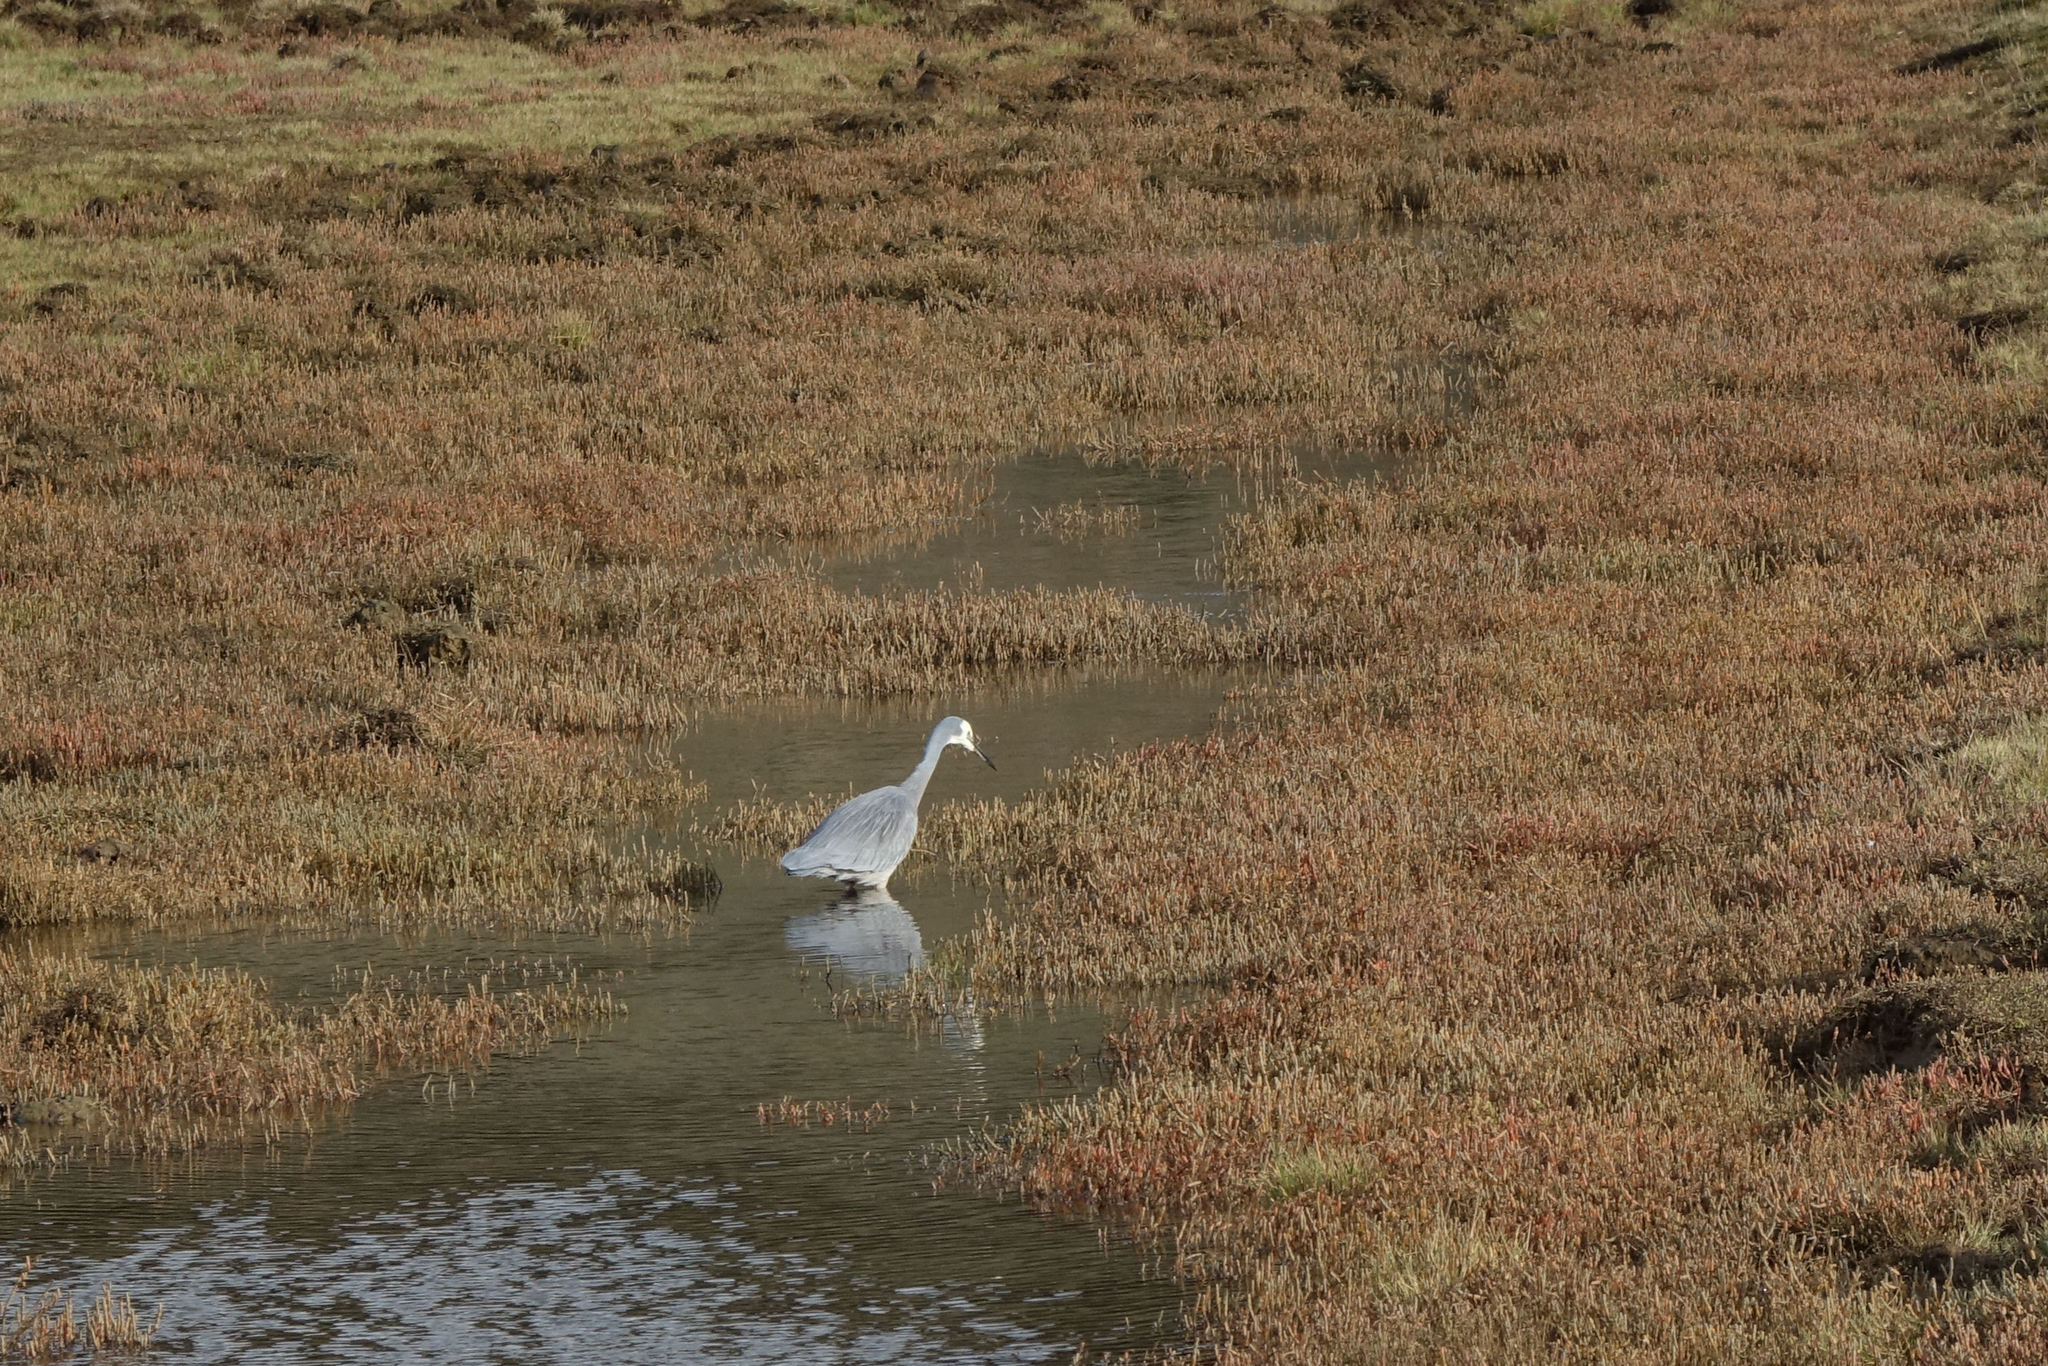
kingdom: Animalia
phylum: Chordata
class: Aves
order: Pelecaniformes
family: Ardeidae
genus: Egretta
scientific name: Egretta novaehollandiae
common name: White-faced heron
